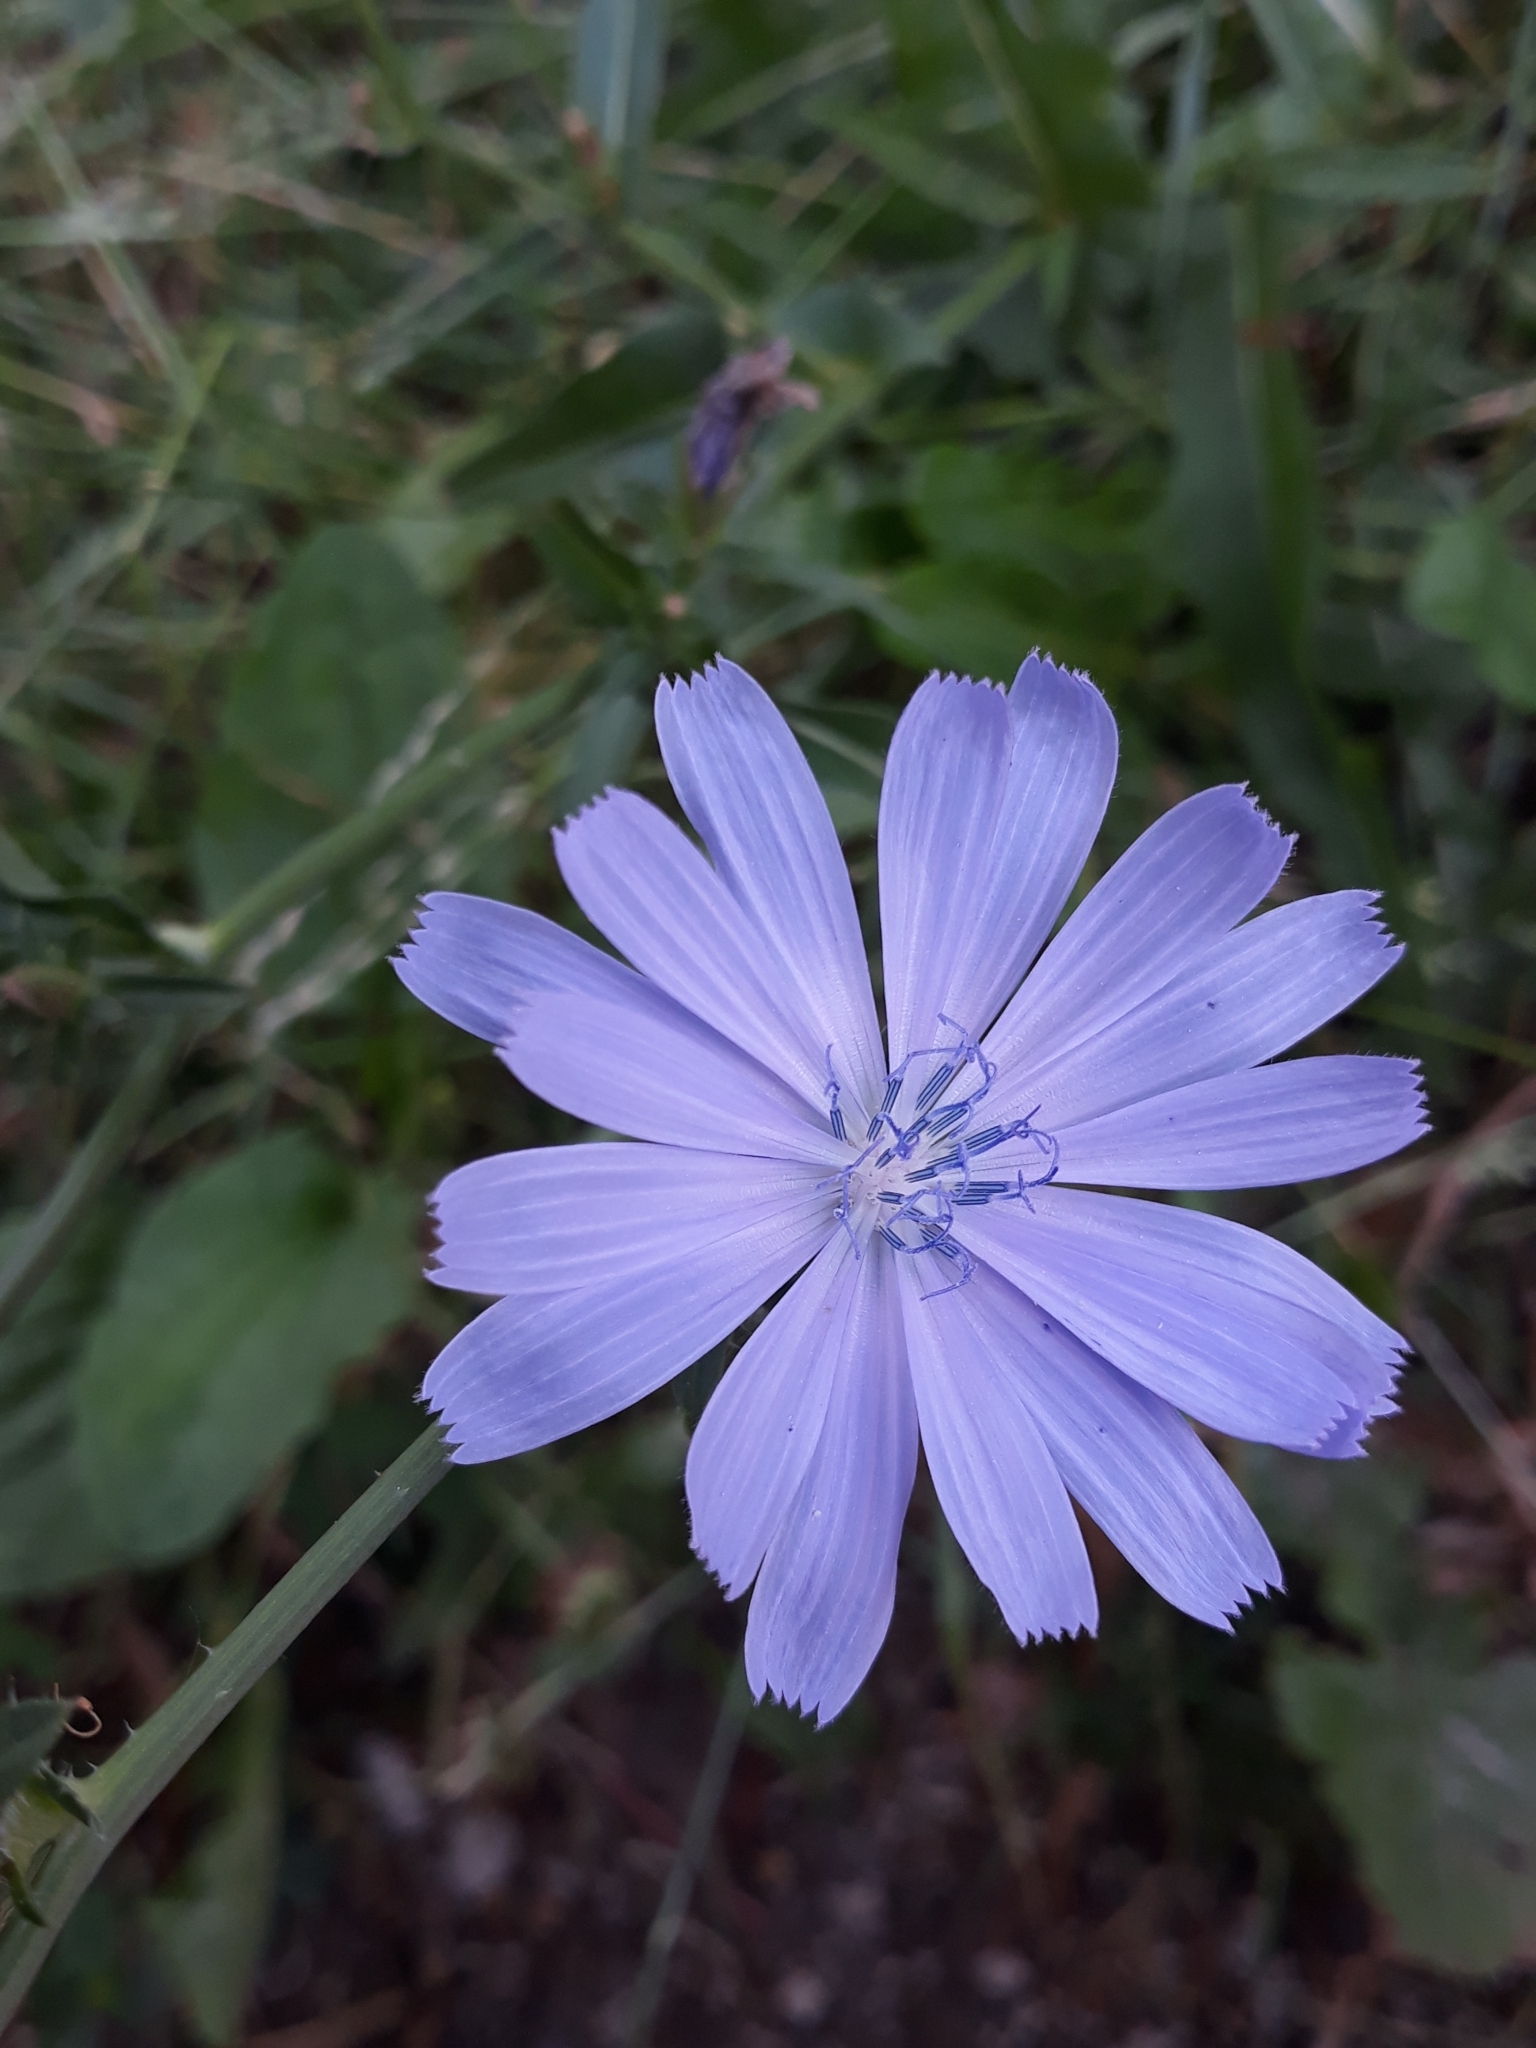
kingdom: Plantae
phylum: Tracheophyta
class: Magnoliopsida
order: Asterales
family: Asteraceae
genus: Cichorium
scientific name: Cichorium intybus
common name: Chicory
